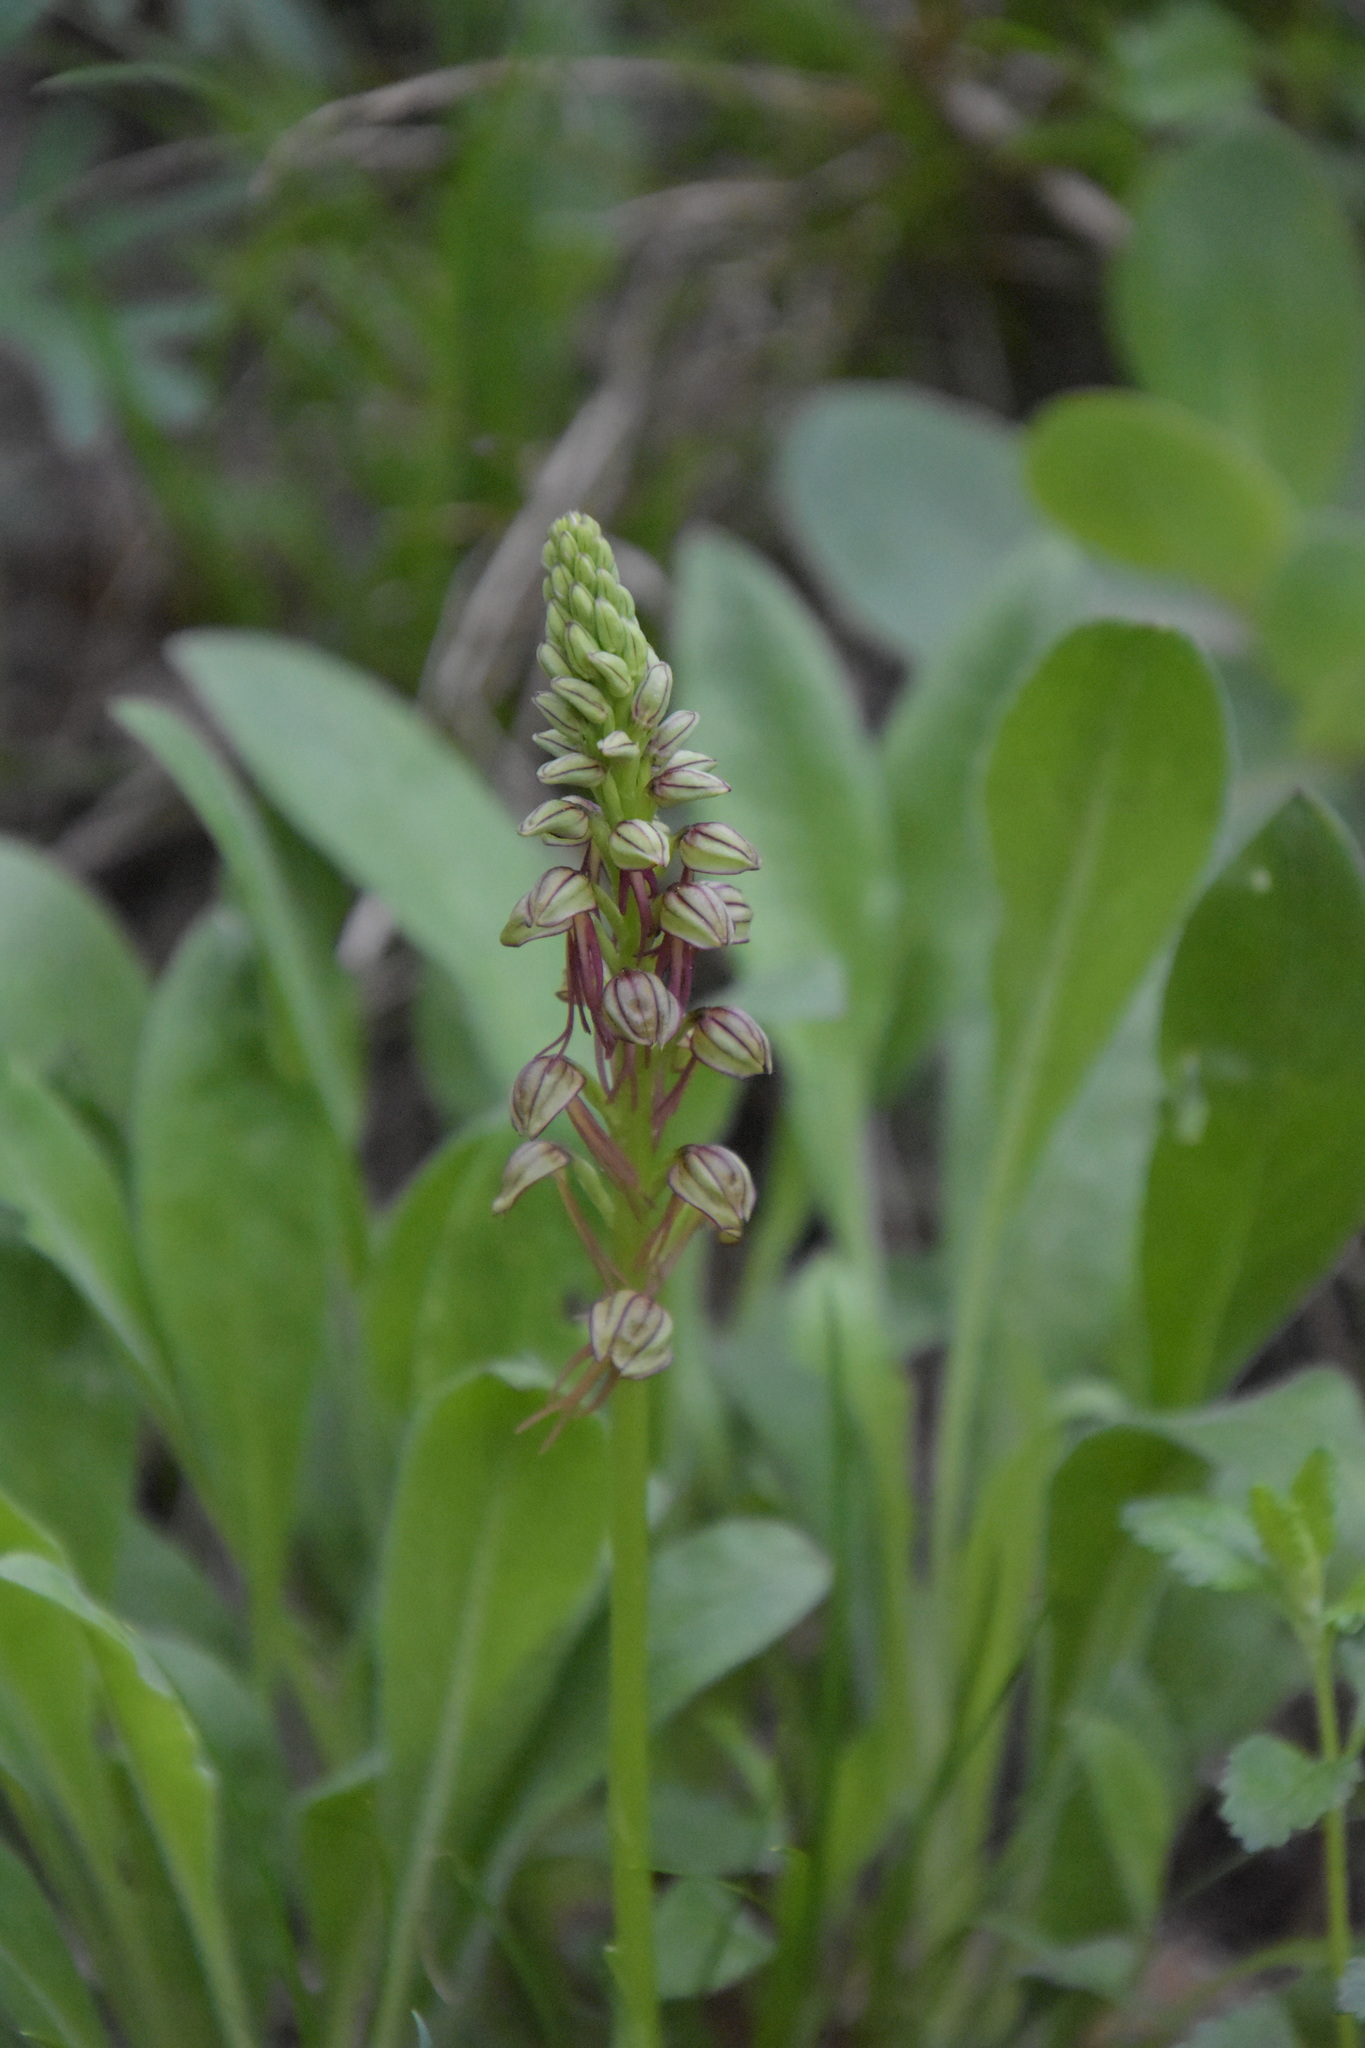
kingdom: Plantae
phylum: Tracheophyta
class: Liliopsida
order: Asparagales
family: Orchidaceae
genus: Orchis
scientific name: Orchis anthropophora
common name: Man orchid
